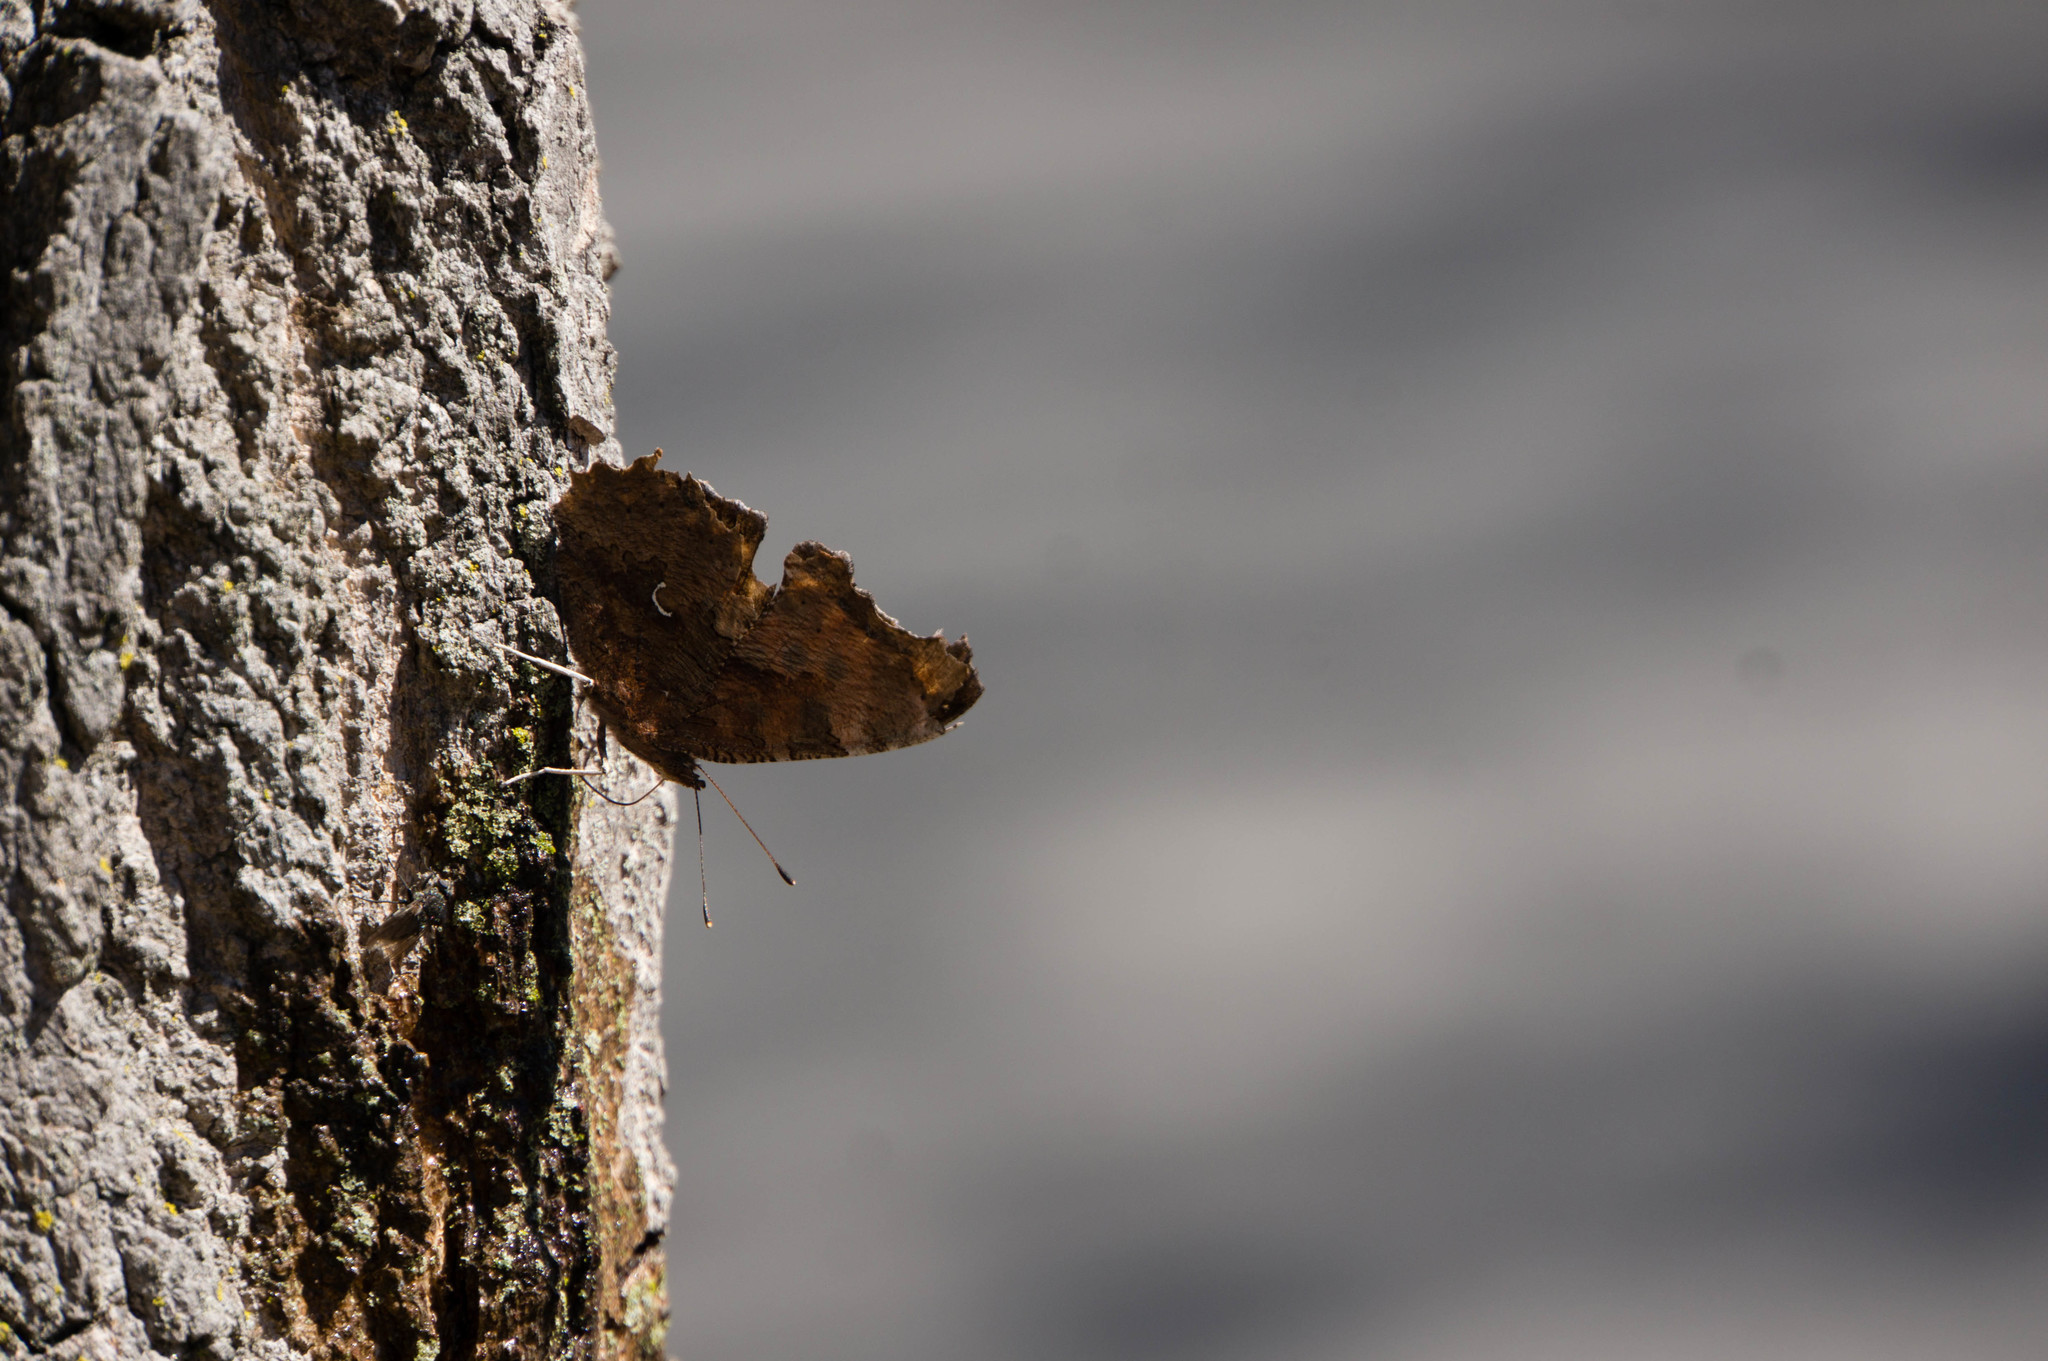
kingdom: Animalia
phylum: Arthropoda
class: Insecta
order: Lepidoptera
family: Nymphalidae
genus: Polygonia
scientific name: Polygonia comma
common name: Eastern comma
